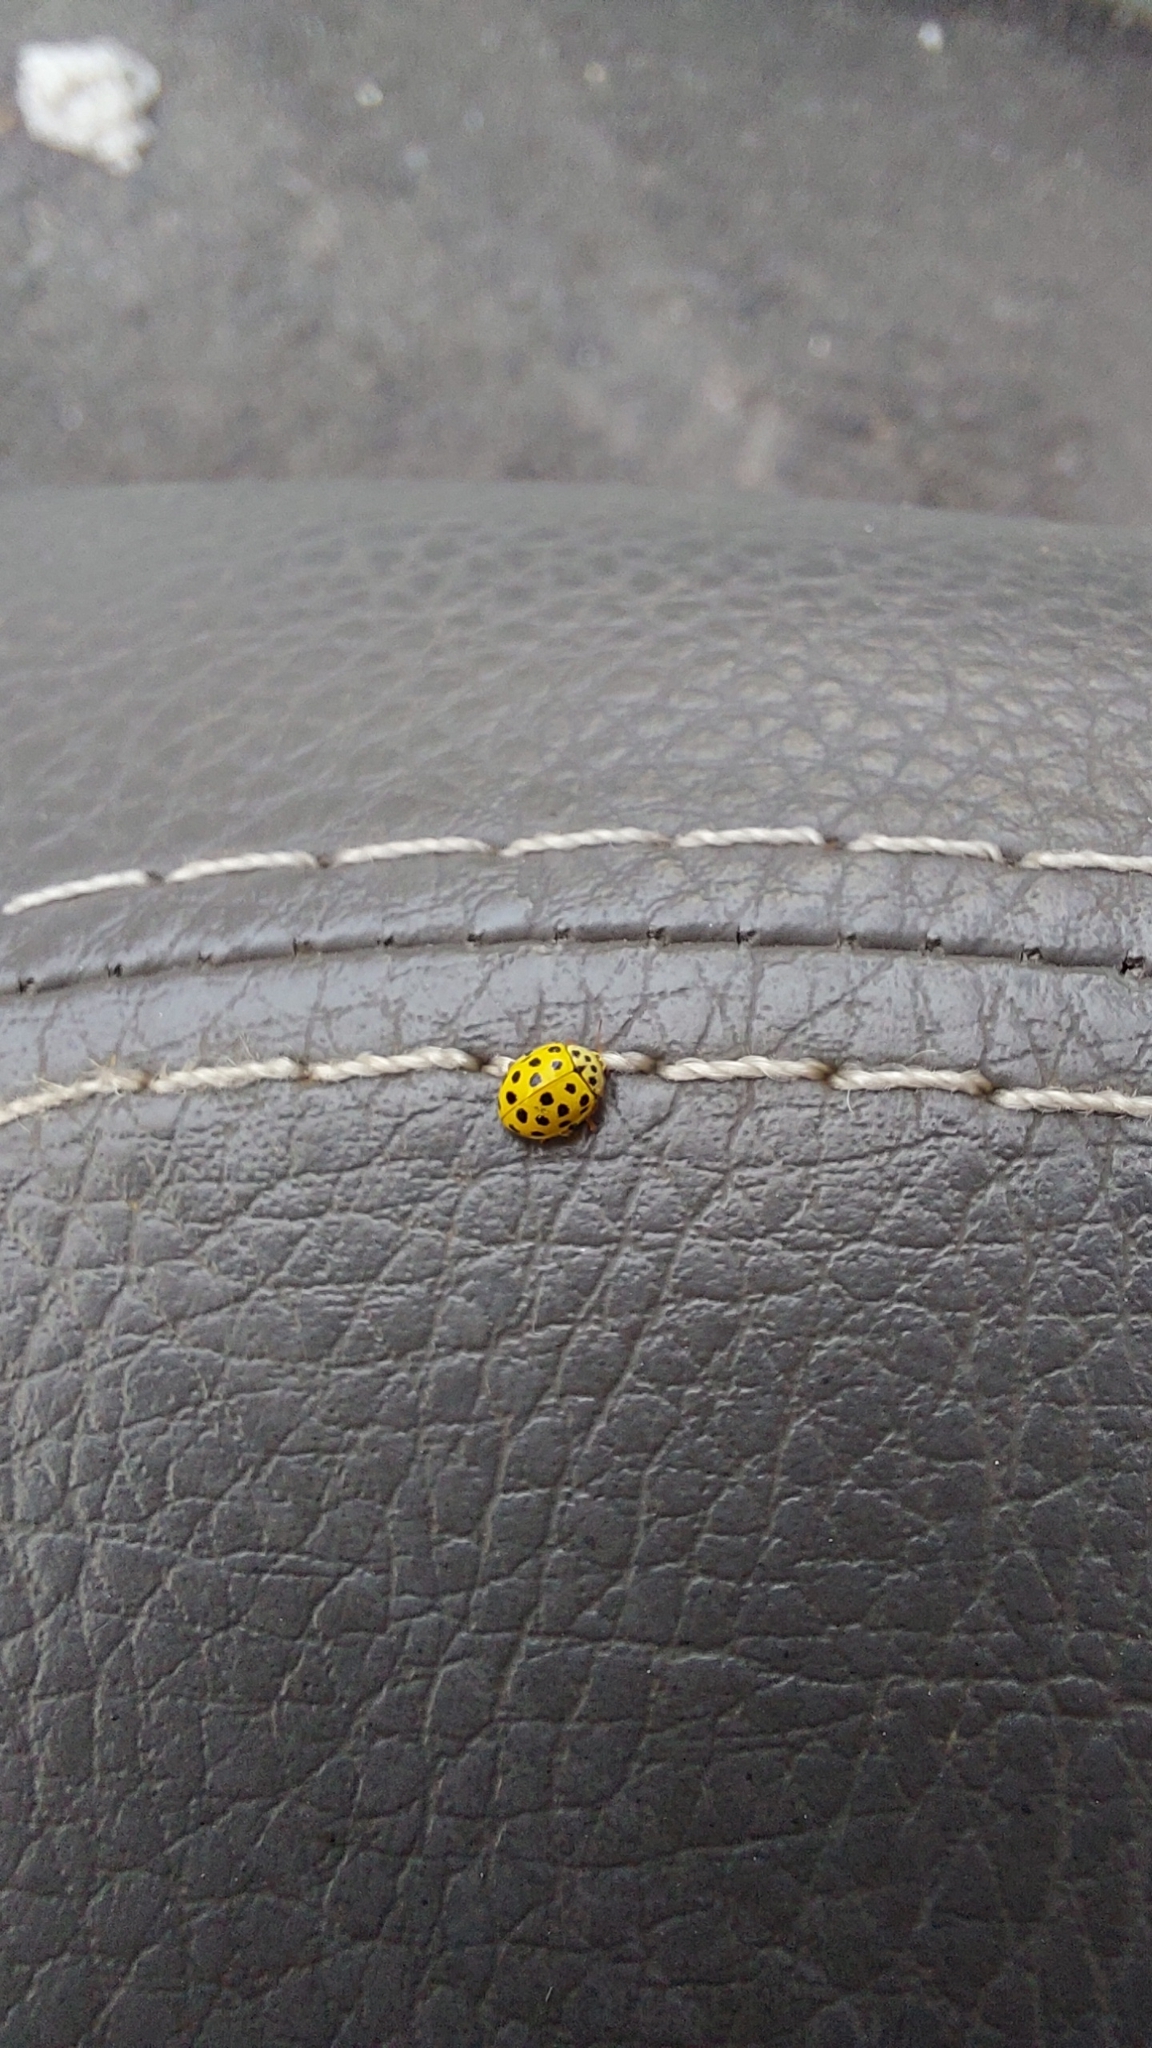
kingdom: Animalia
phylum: Arthropoda
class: Insecta
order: Coleoptera
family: Coccinellidae
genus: Psyllobora
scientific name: Psyllobora vigintiduopunctata
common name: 22-spot ladybird
